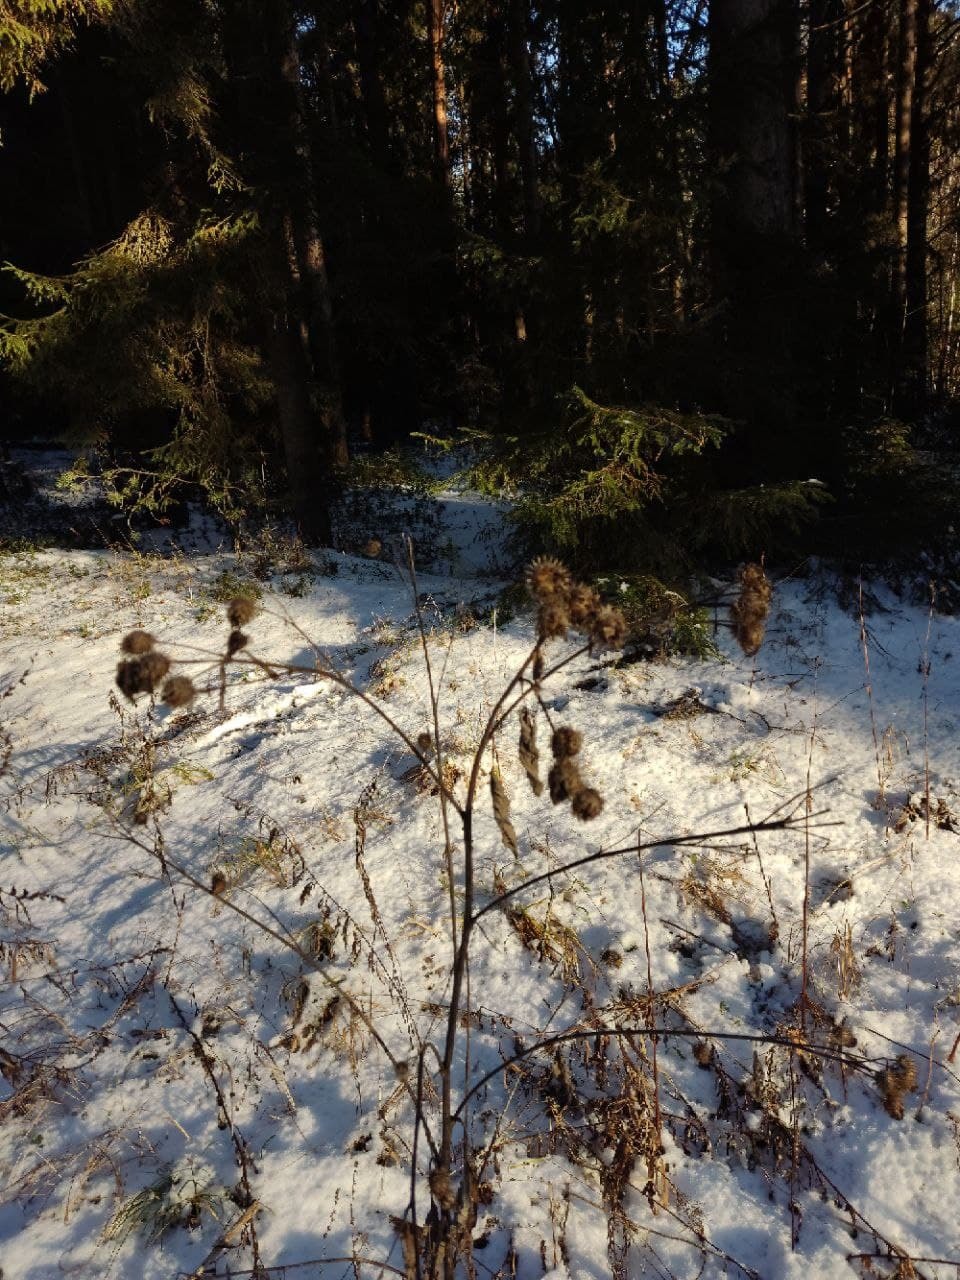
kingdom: Plantae
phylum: Tracheophyta
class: Magnoliopsida
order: Asterales
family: Asteraceae
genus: Arctium
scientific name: Arctium tomentosum
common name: Woolly burdock
